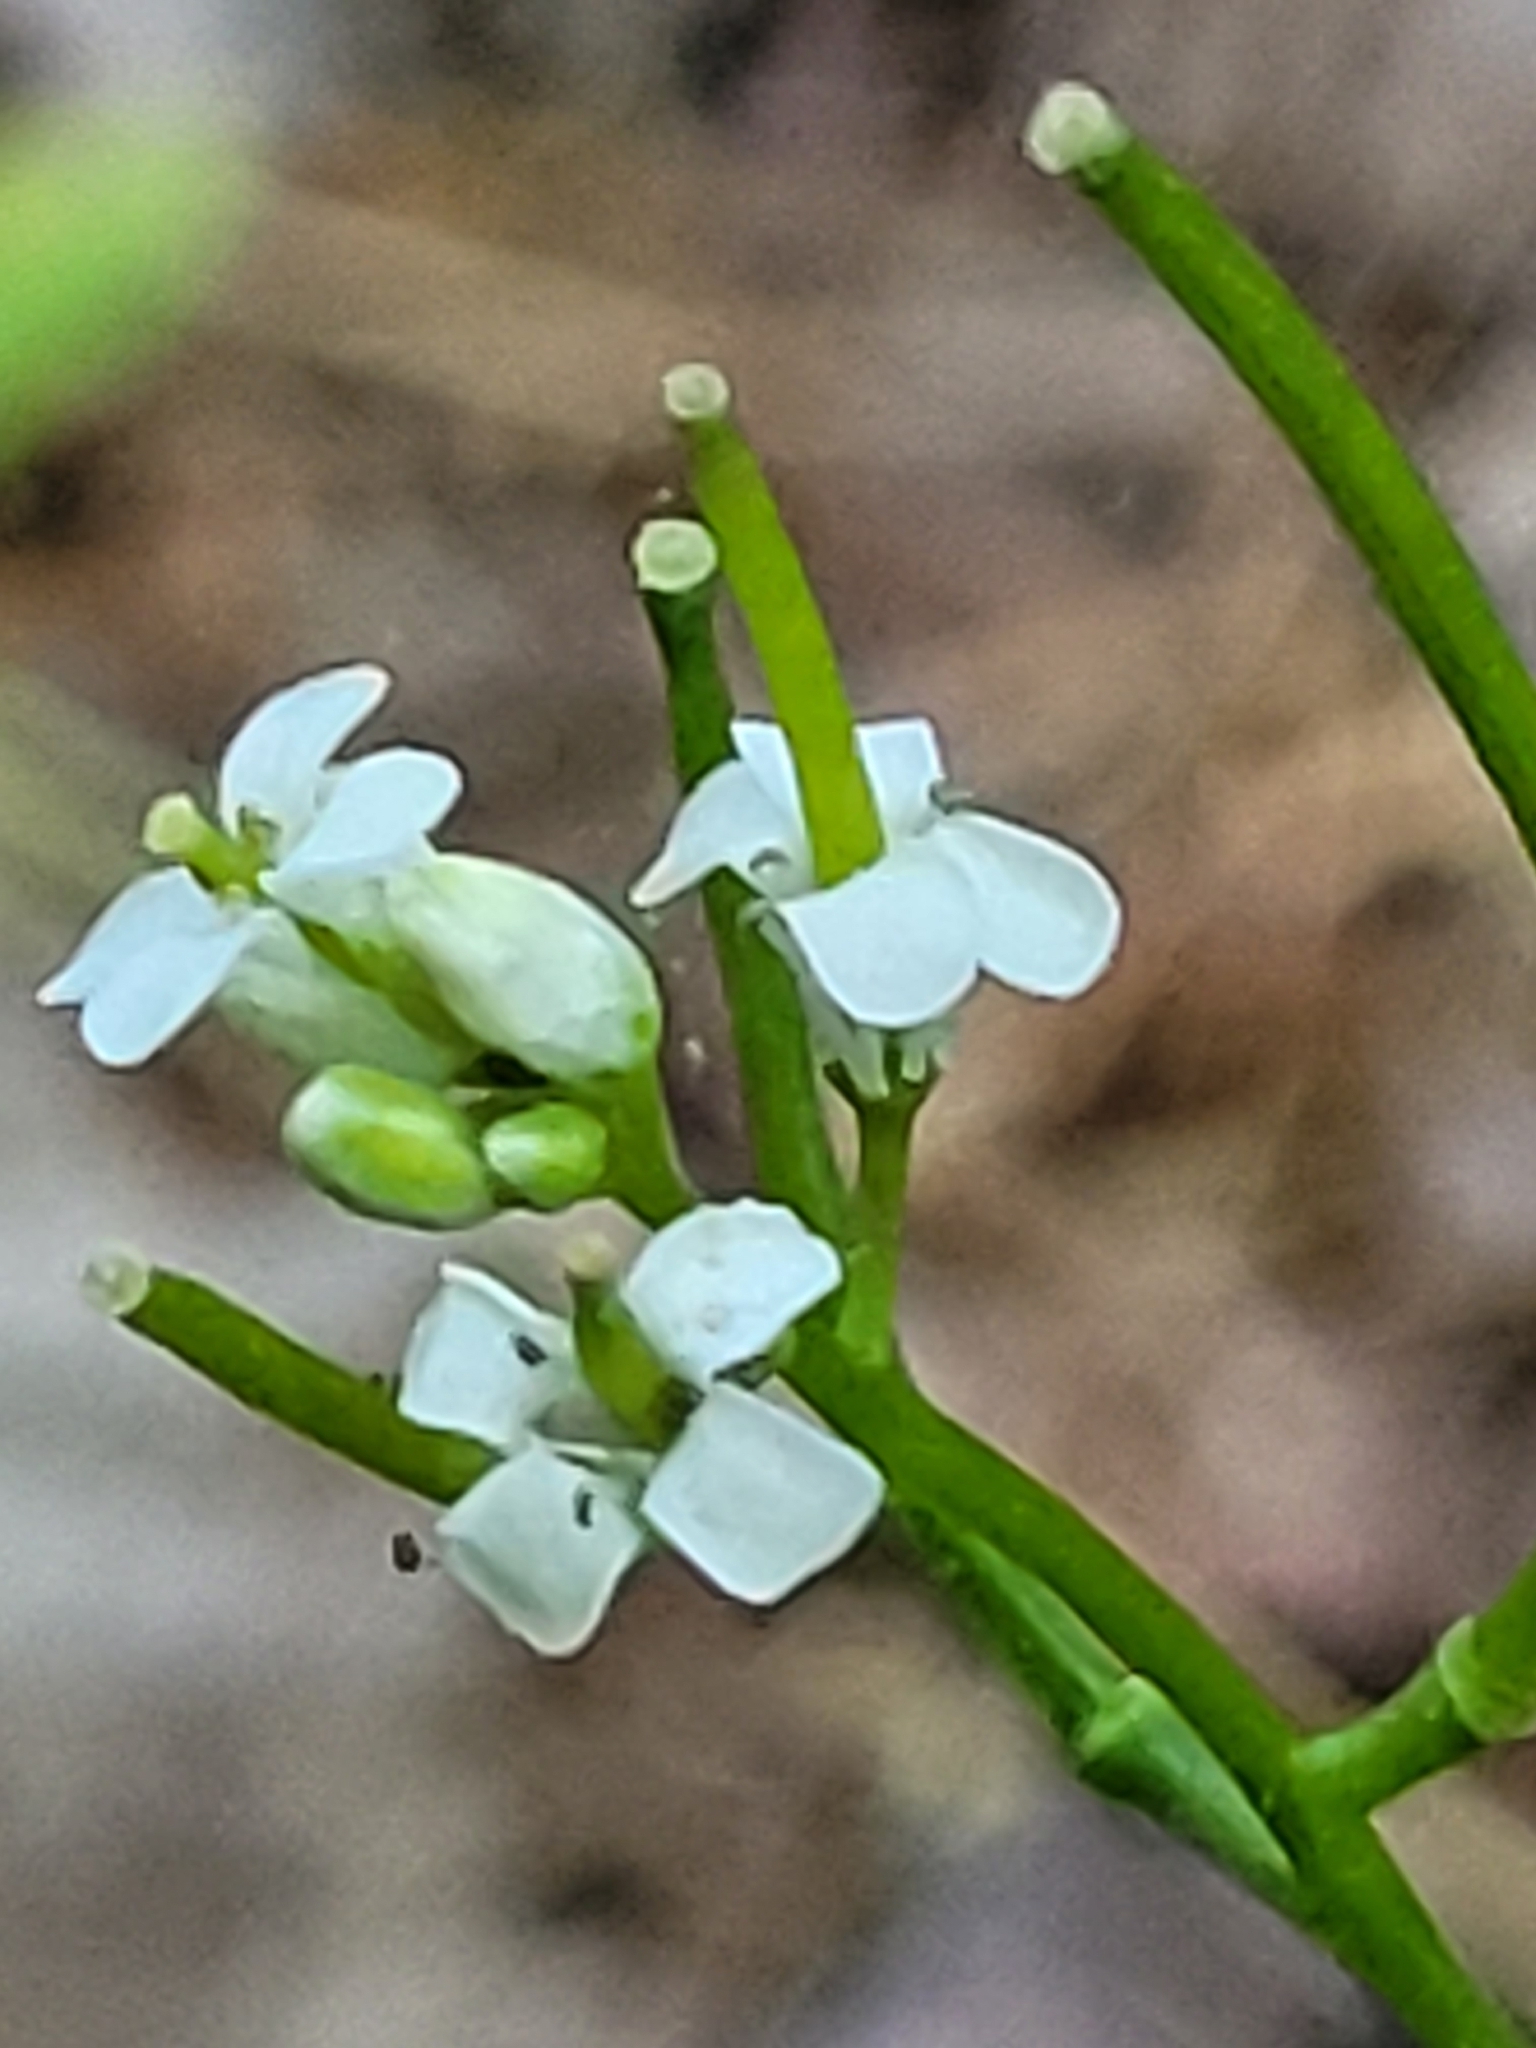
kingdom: Plantae
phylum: Tracheophyta
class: Magnoliopsida
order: Brassicales
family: Brassicaceae
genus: Alliaria
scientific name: Alliaria petiolata
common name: Garlic mustard
